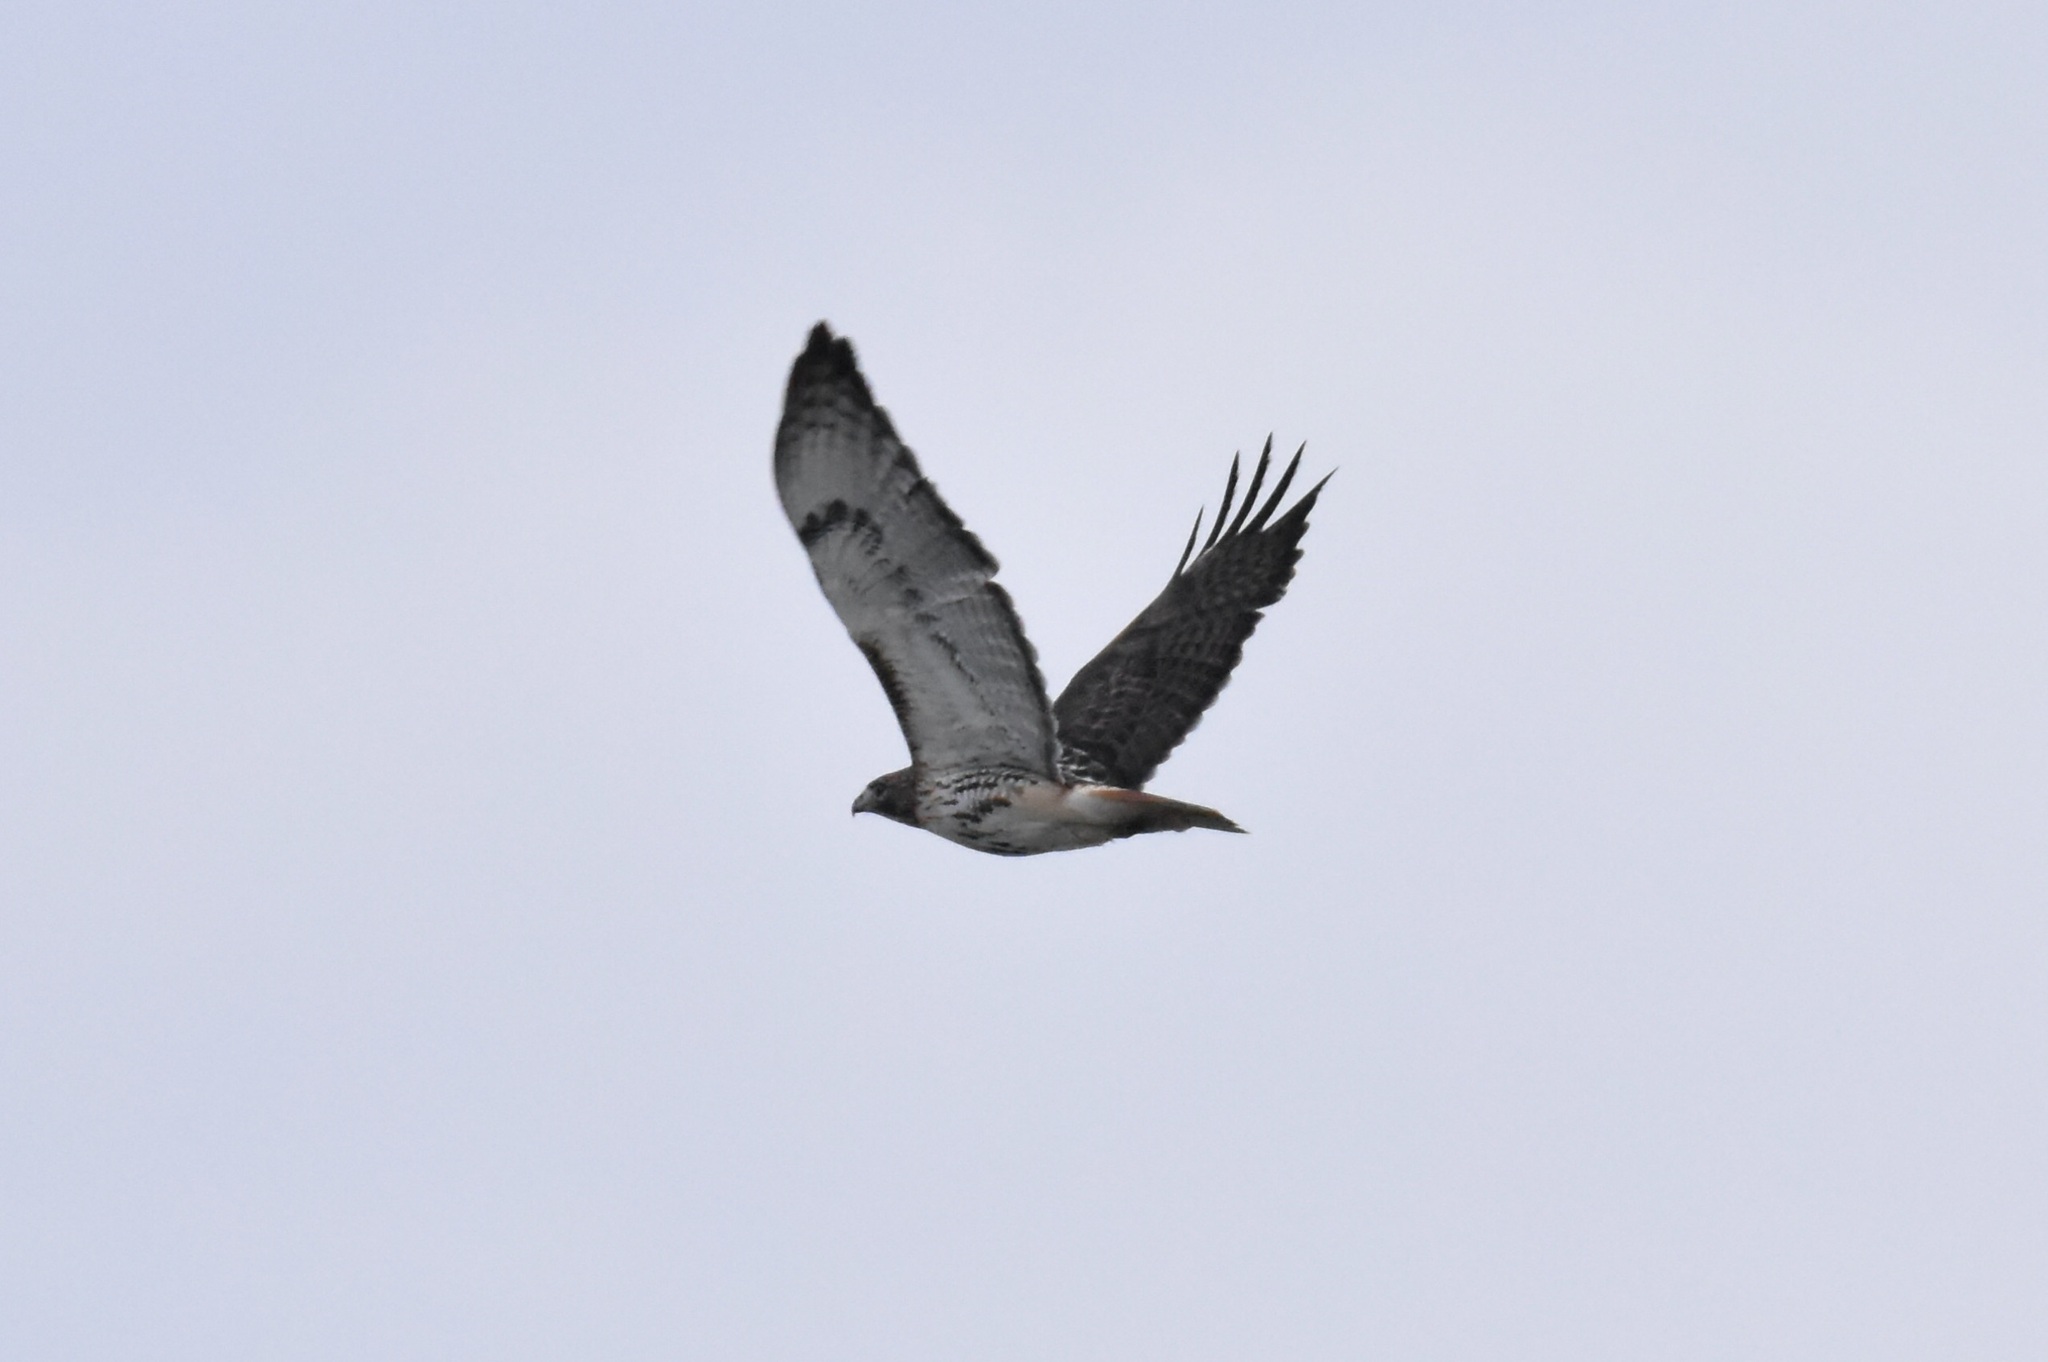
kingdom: Animalia
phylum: Chordata
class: Aves
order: Accipitriformes
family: Accipitridae
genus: Buteo
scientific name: Buteo jamaicensis
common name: Red-tailed hawk
